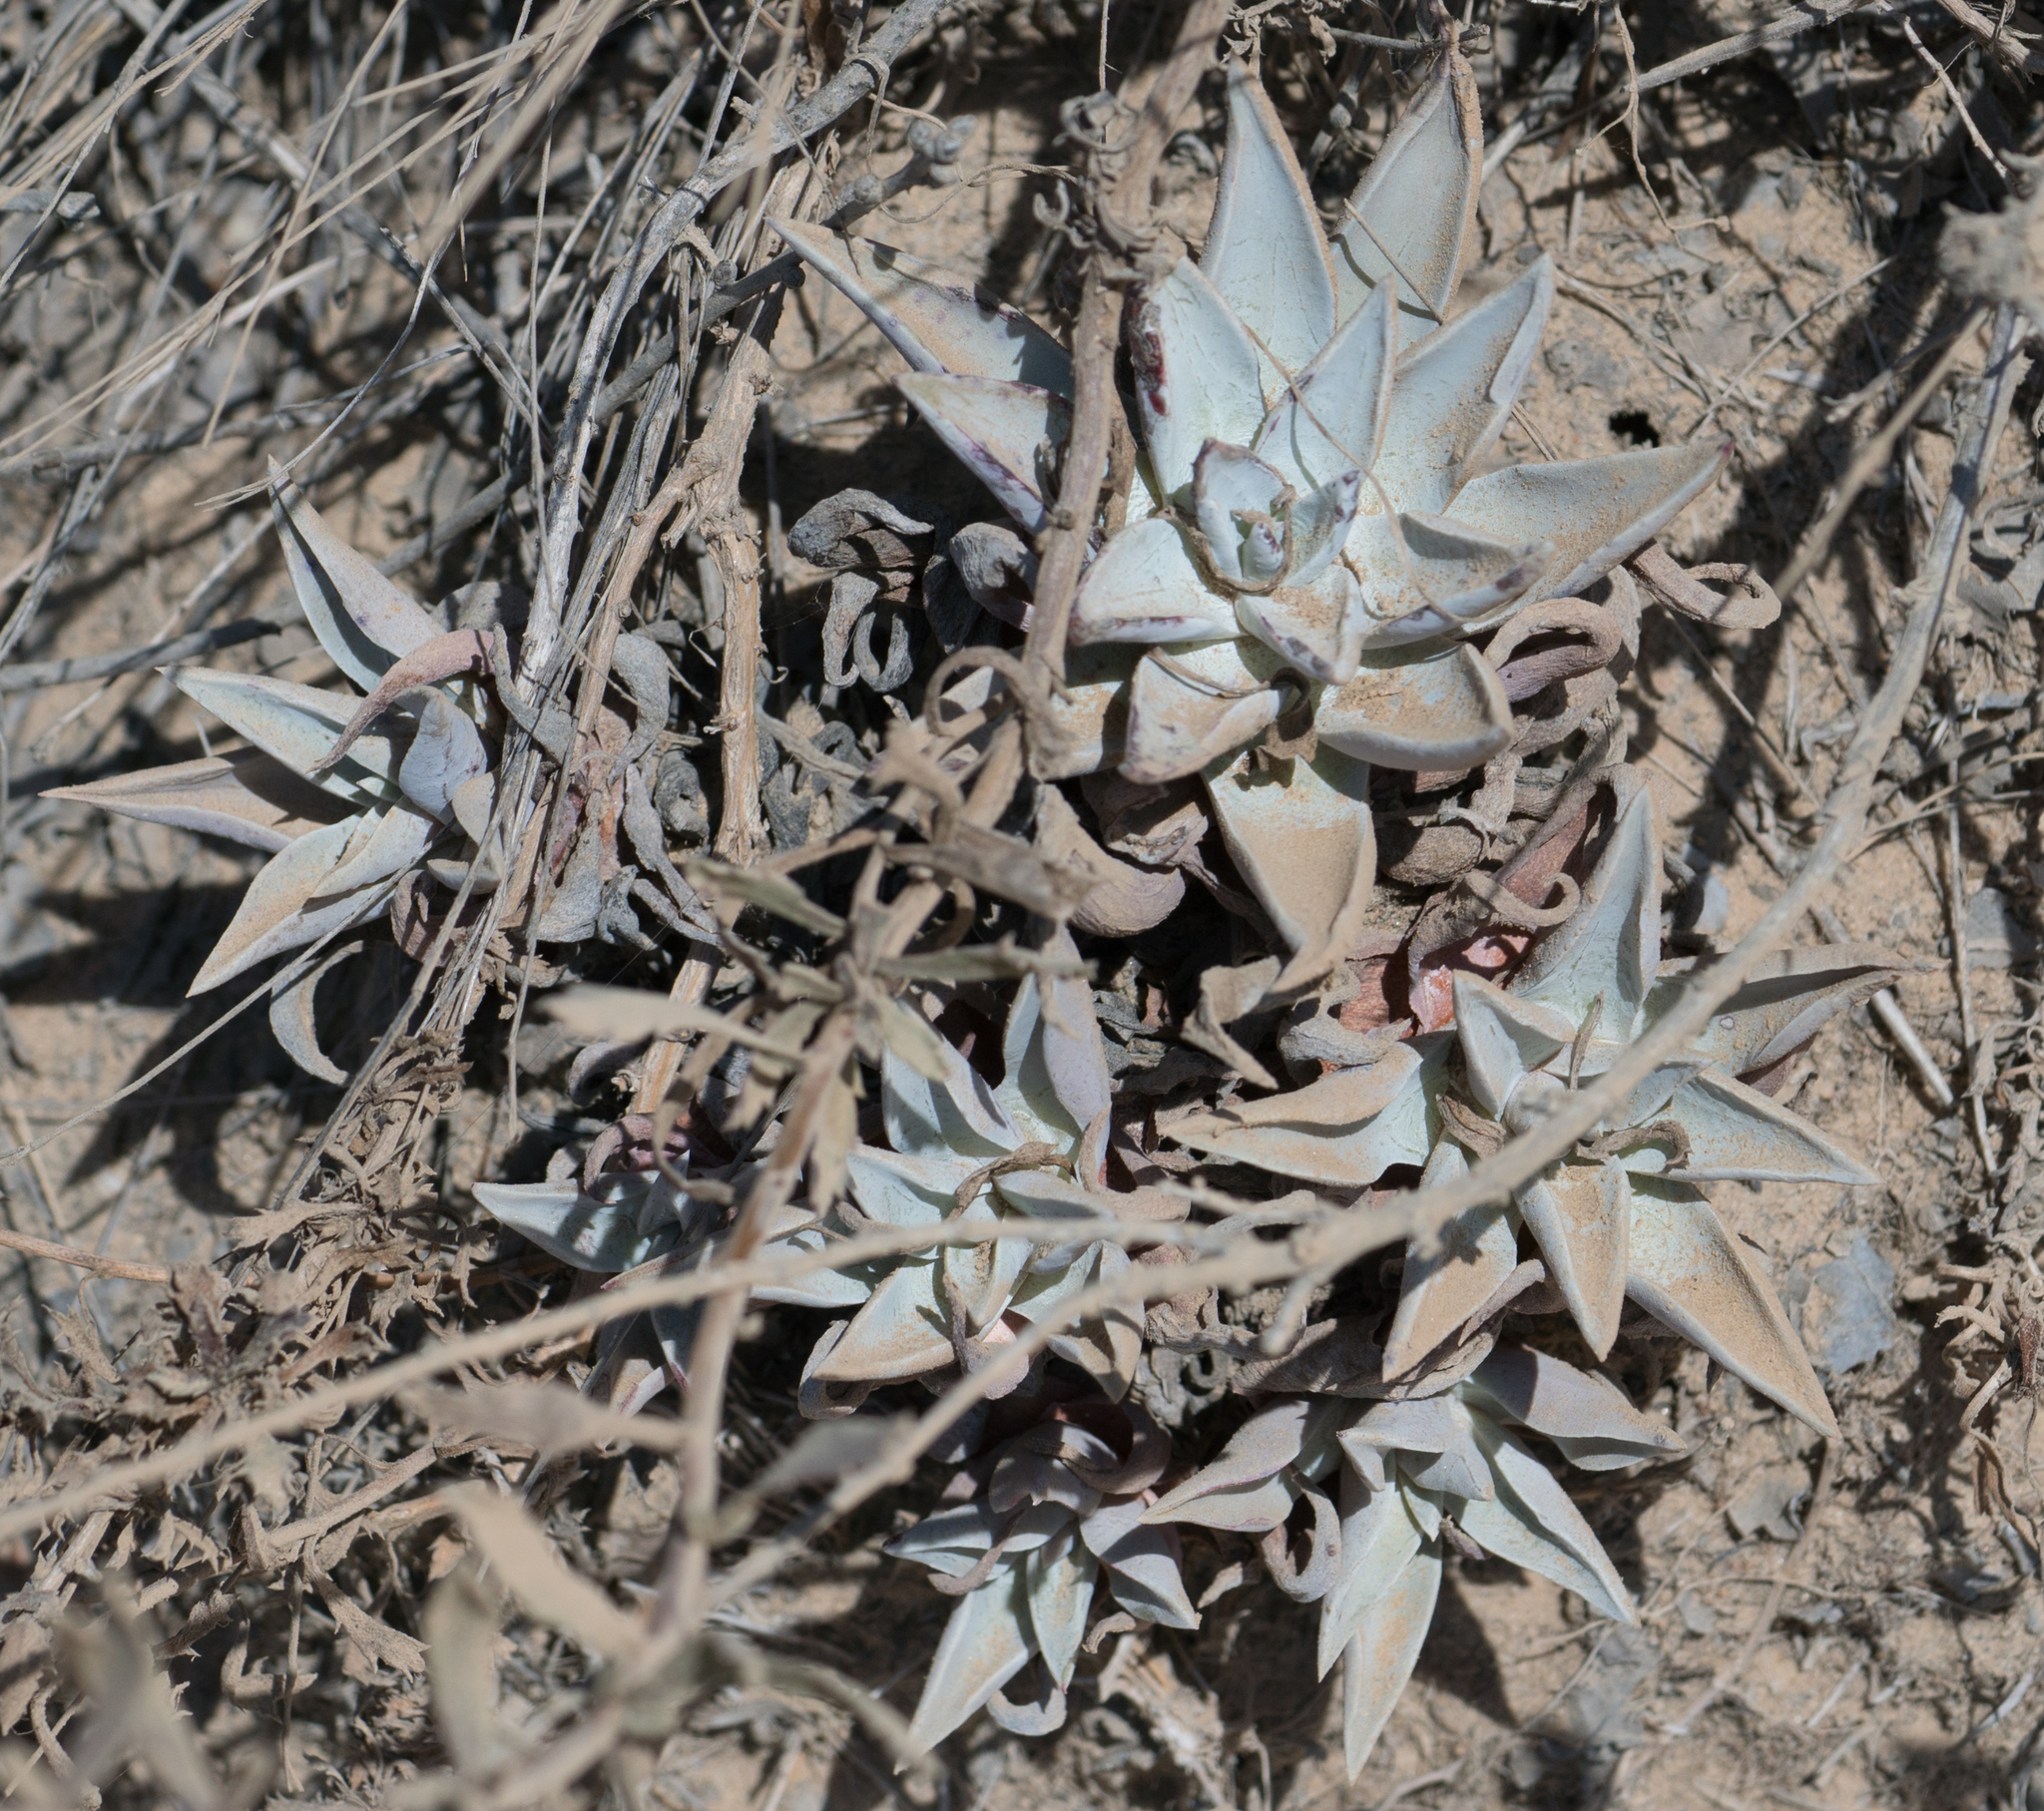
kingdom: Plantae
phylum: Tracheophyta
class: Magnoliopsida
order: Saxifragales
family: Crassulaceae
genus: Dudleya
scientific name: Dudleya lanceolata
